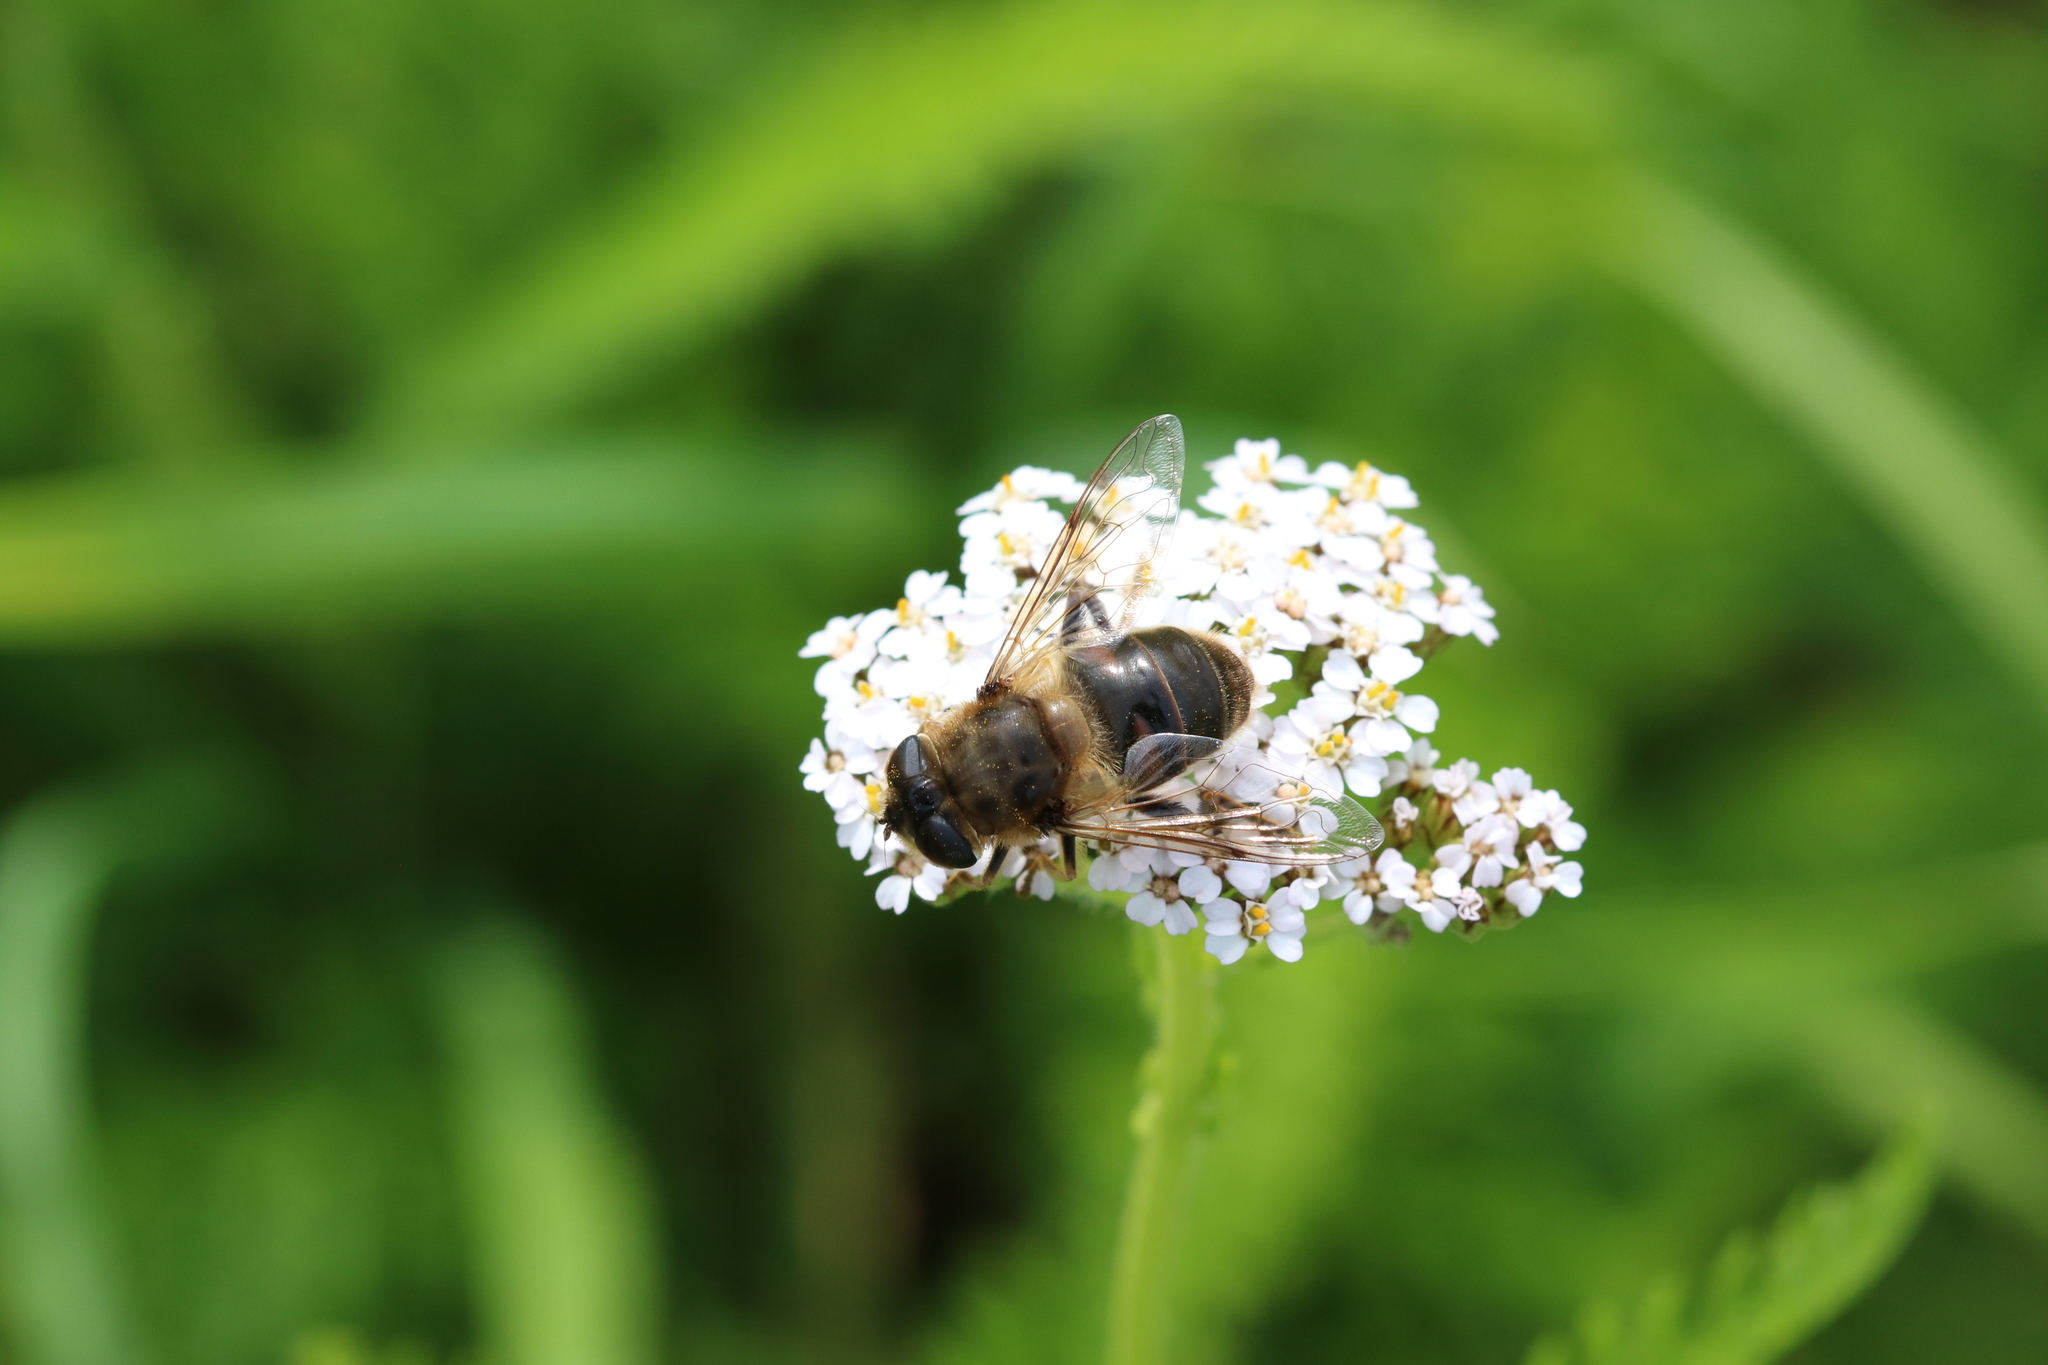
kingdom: Animalia
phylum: Arthropoda
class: Insecta
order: Diptera
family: Syrphidae
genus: Eristalis
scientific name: Eristalis tenax
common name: Drone fly
